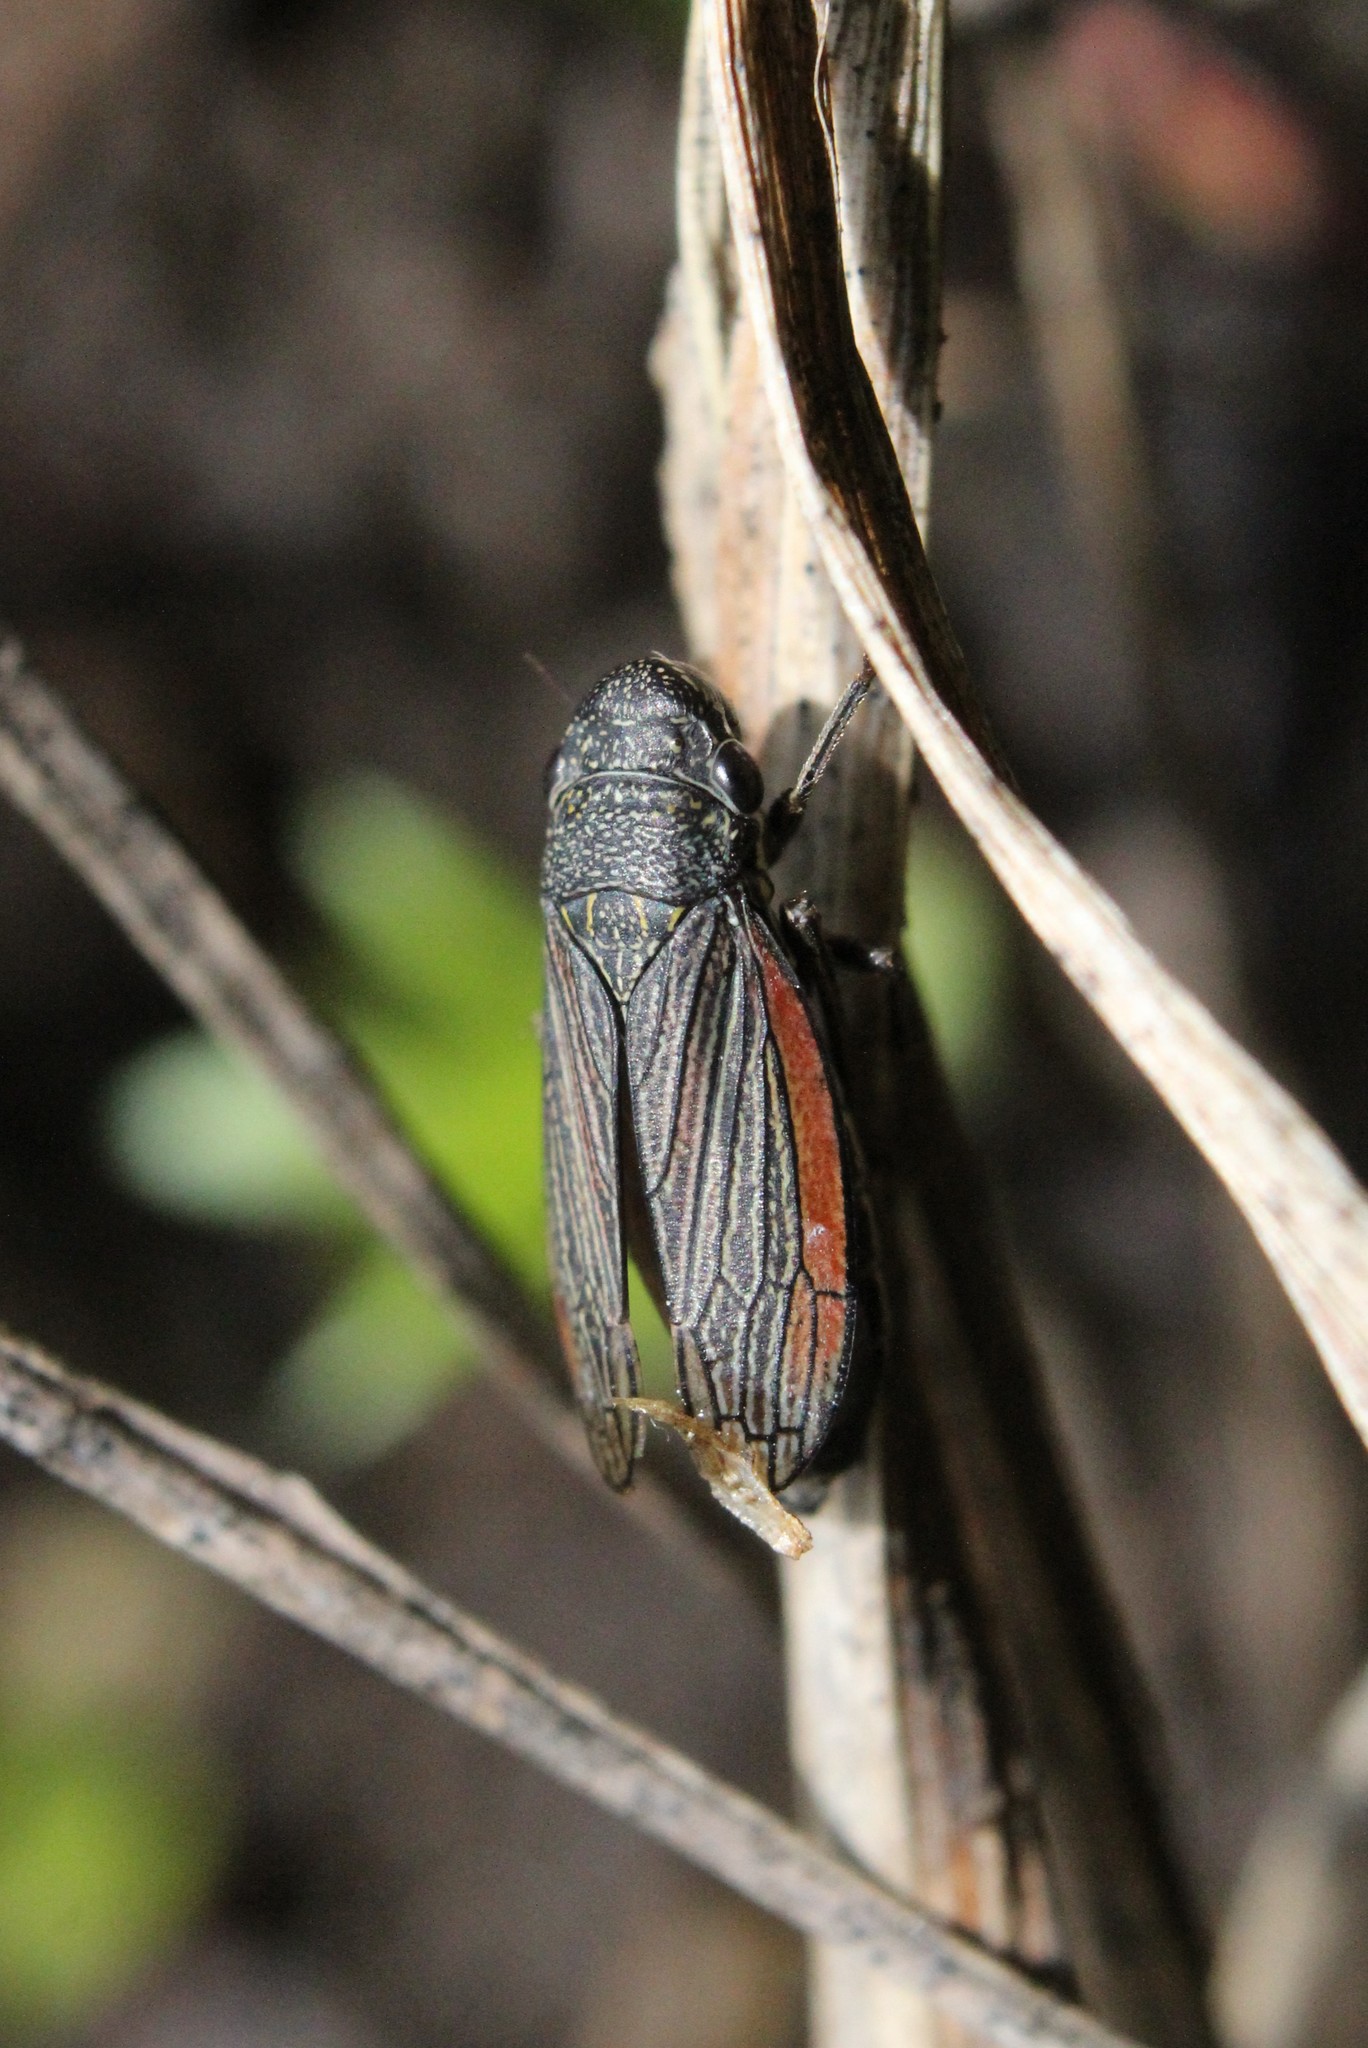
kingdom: Animalia
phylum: Arthropoda
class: Insecta
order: Hemiptera
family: Cicadellidae
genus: Cuerna
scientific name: Cuerna striata
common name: Striped leafhopper
